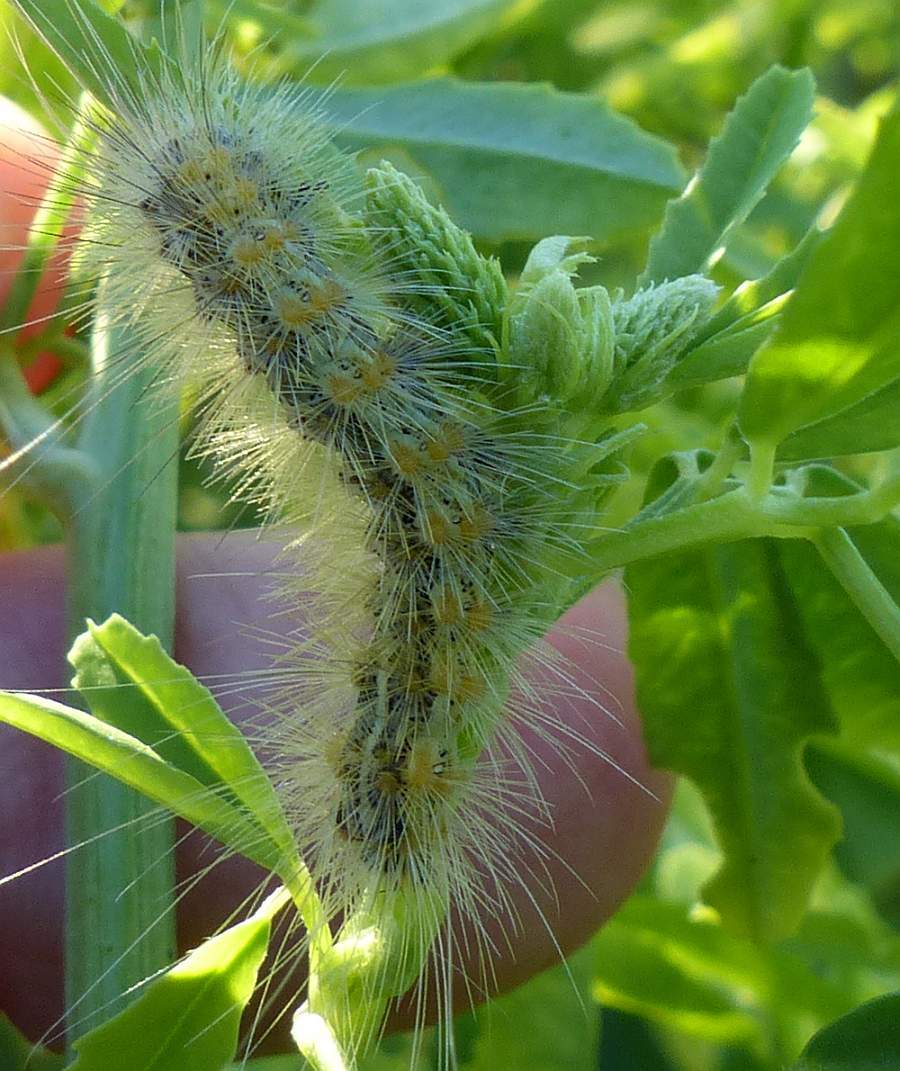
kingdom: Animalia
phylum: Arthropoda
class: Insecta
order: Lepidoptera
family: Erebidae
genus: Hyphantria
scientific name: Hyphantria cunea
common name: American white moth
